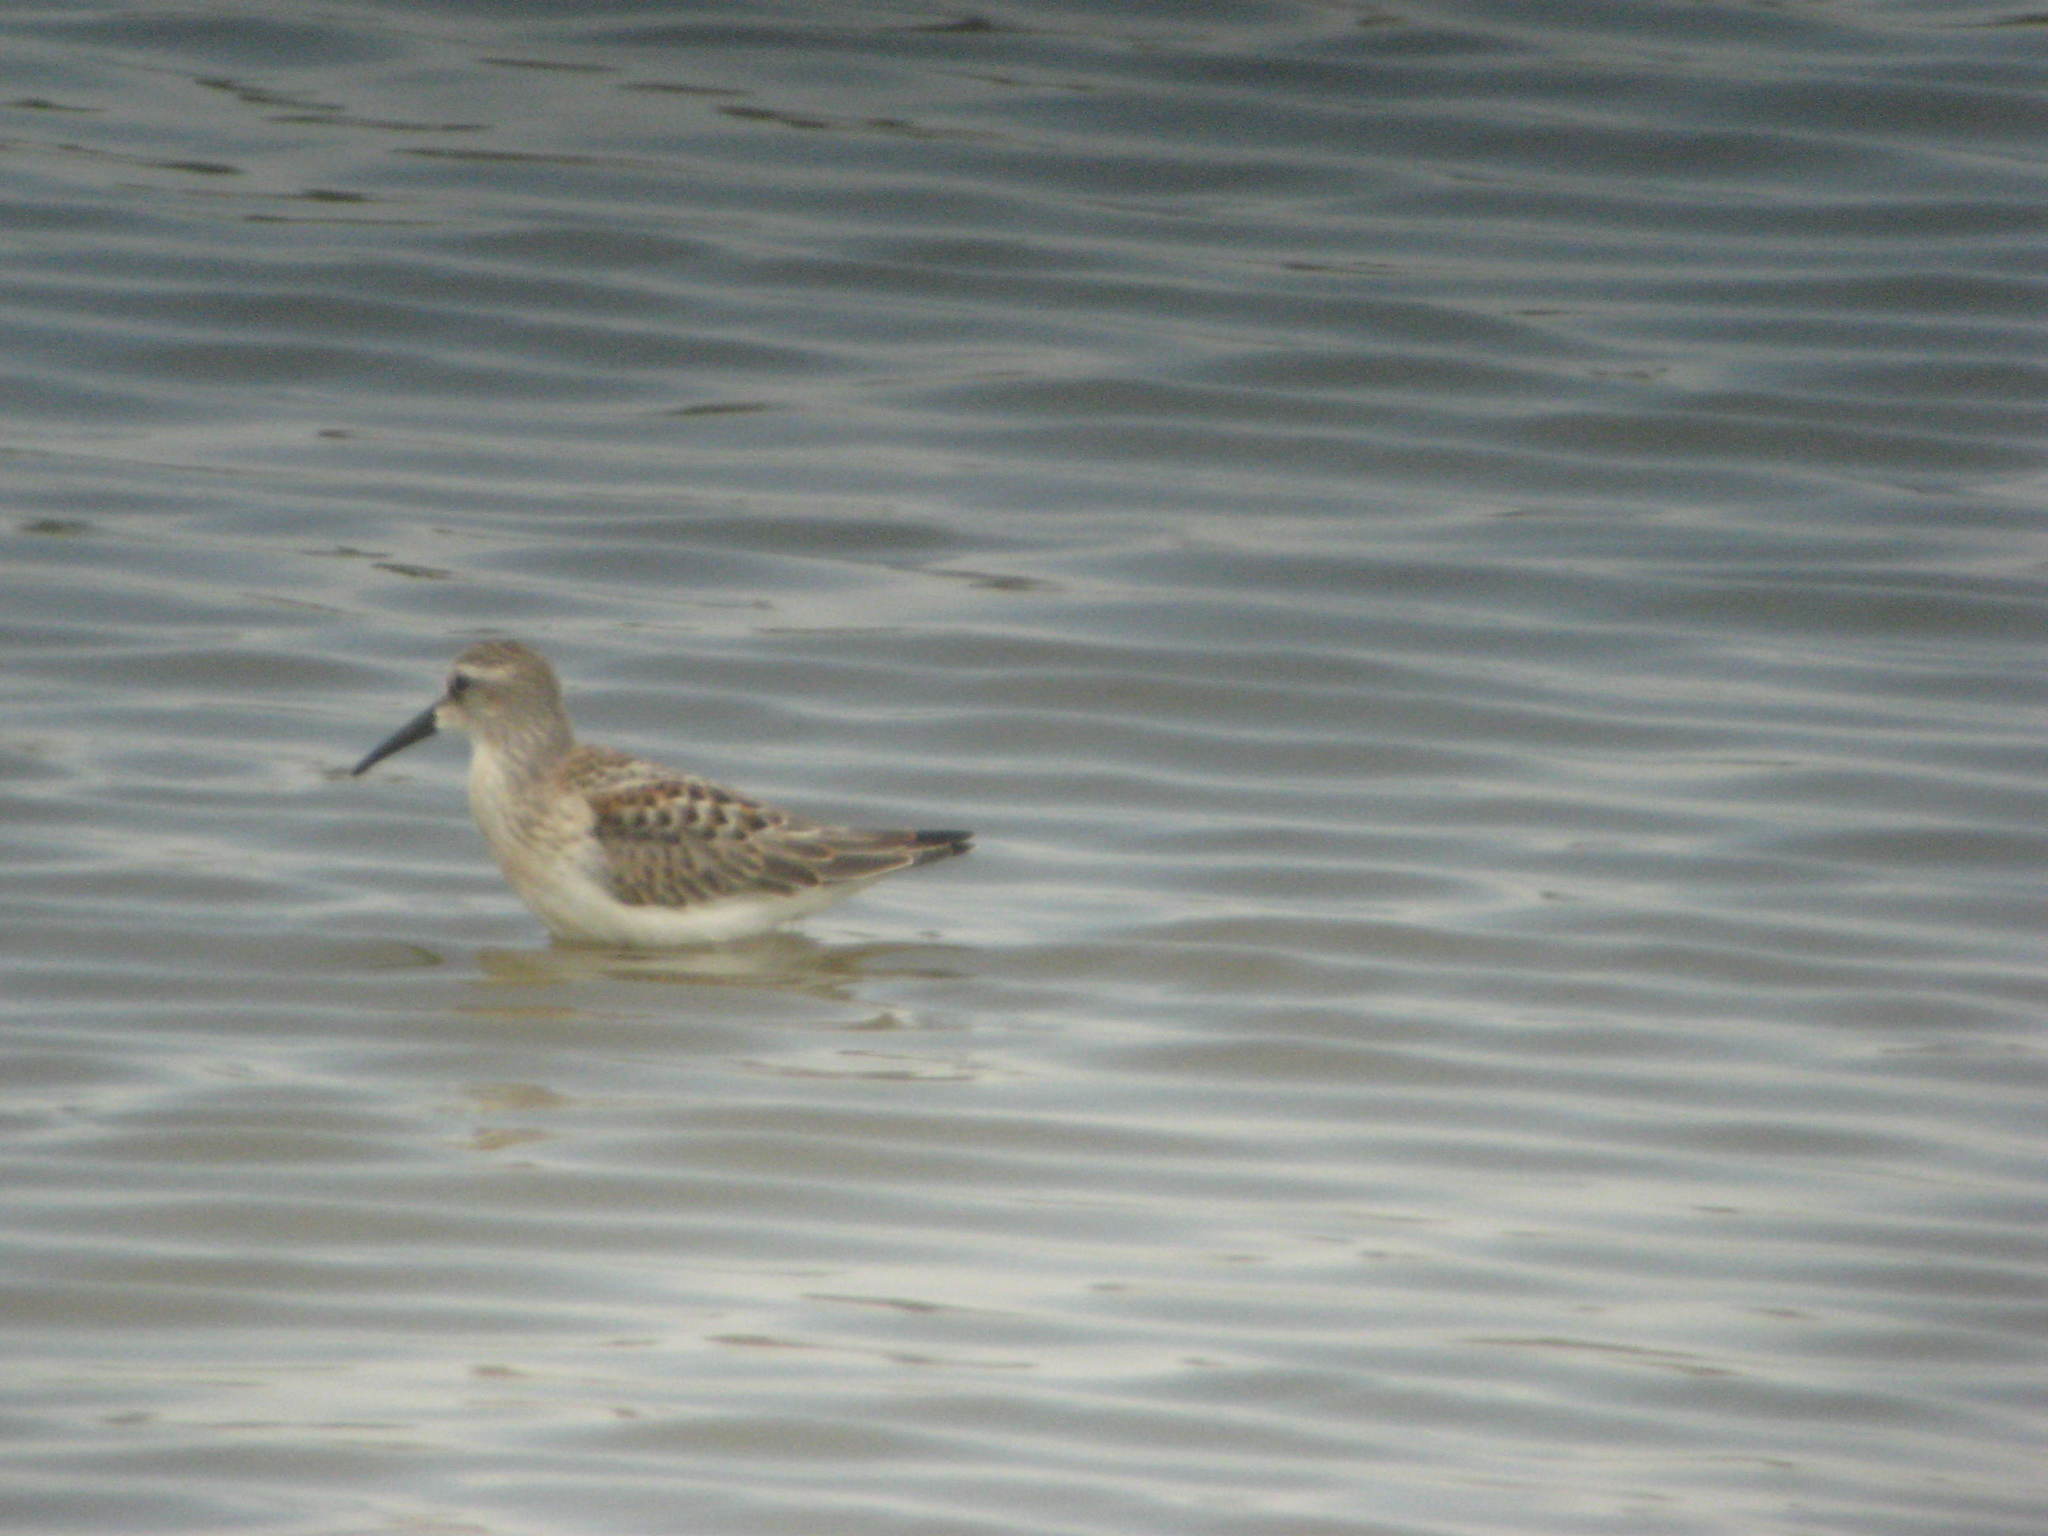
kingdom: Animalia
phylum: Chordata
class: Aves
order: Charadriiformes
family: Scolopacidae
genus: Calidris
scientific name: Calidris mauri
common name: Western sandpiper
